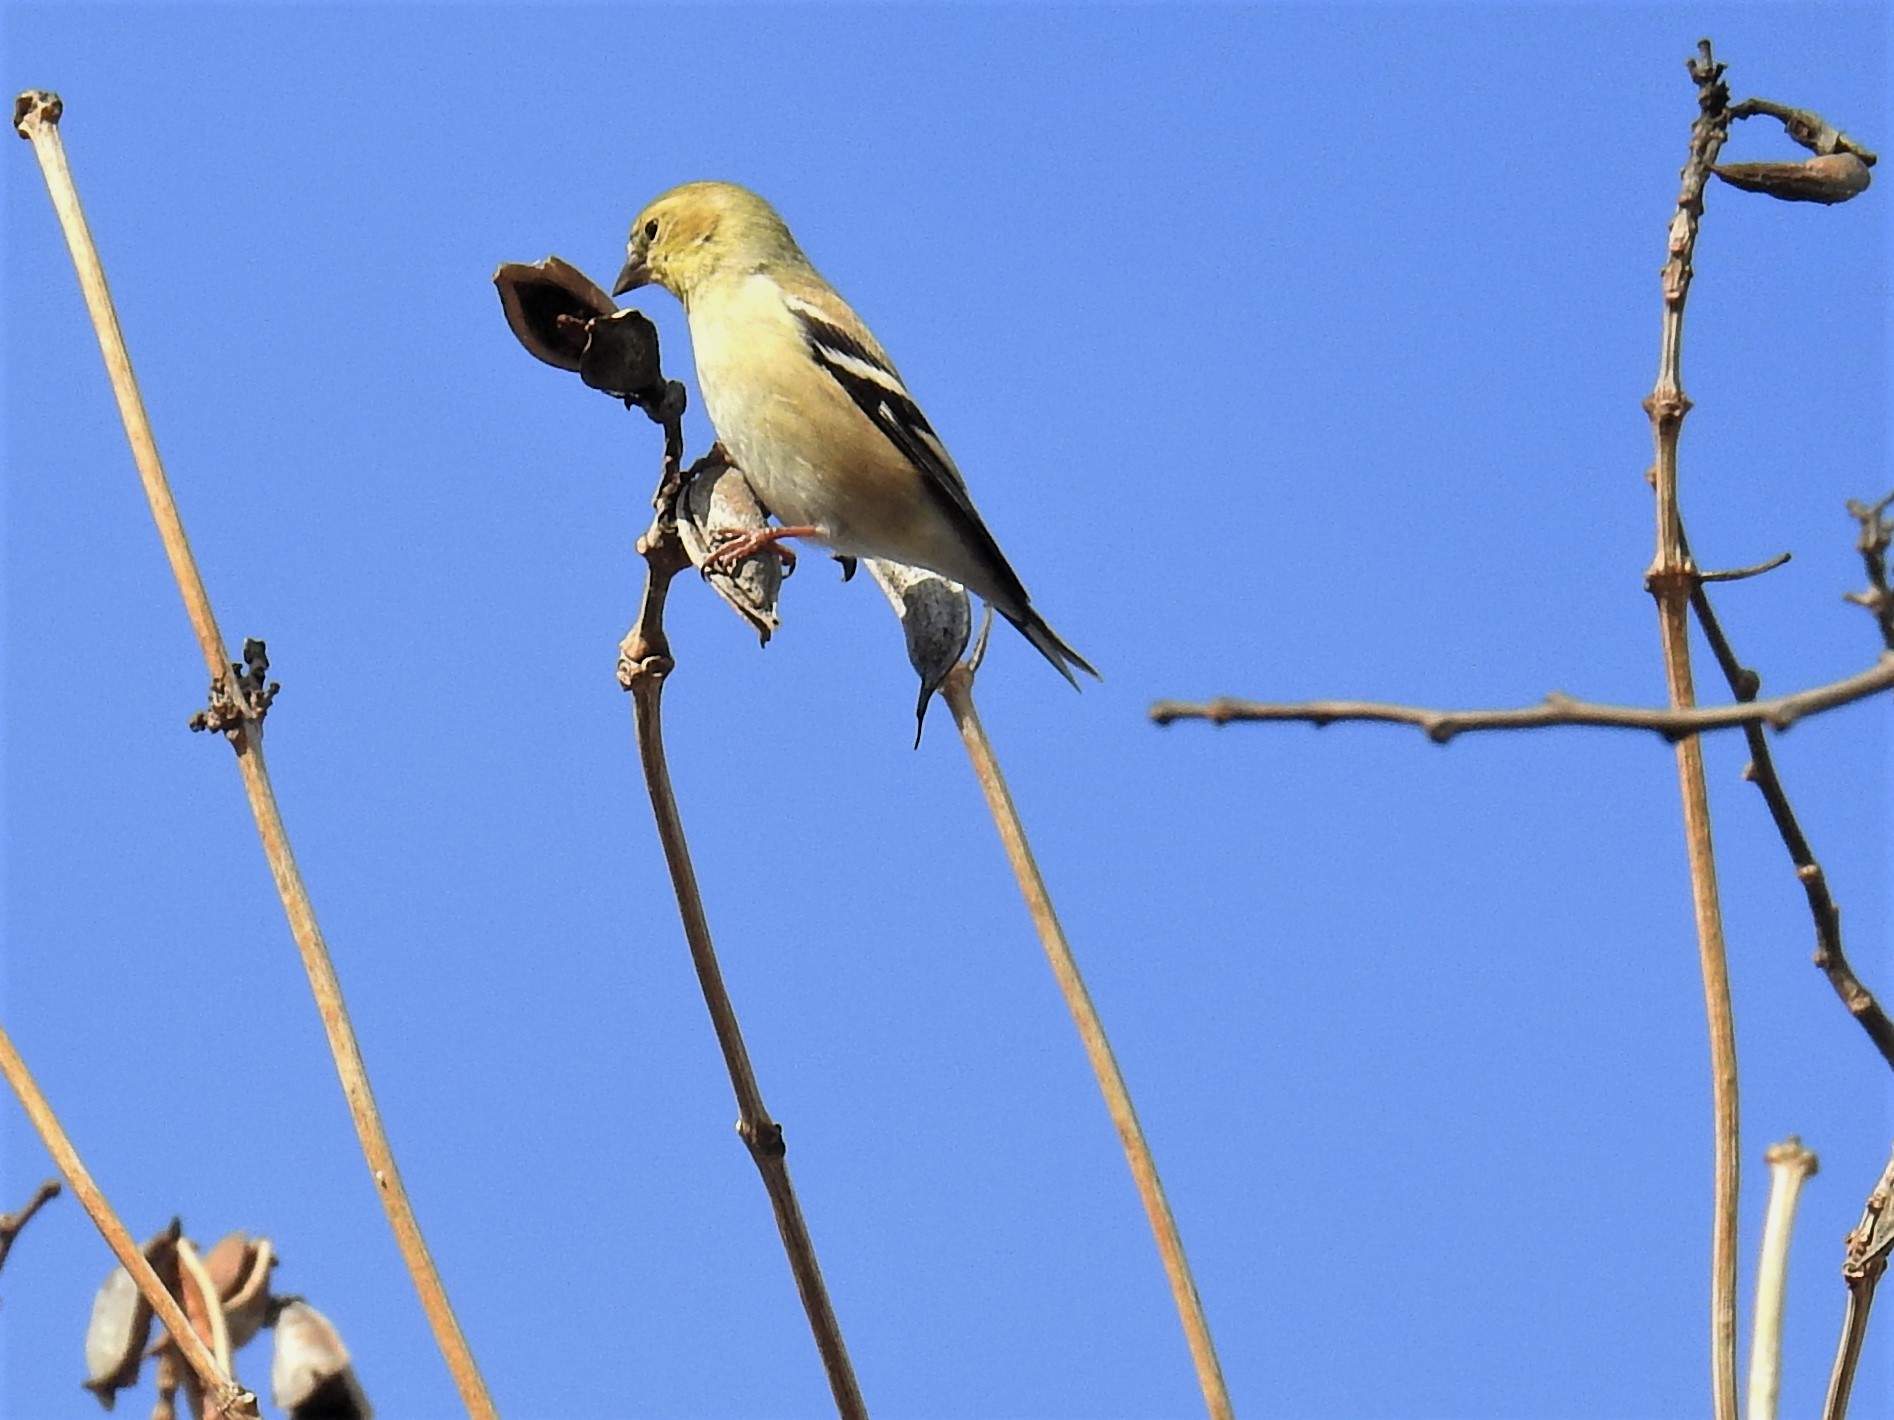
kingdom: Animalia
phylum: Chordata
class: Aves
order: Passeriformes
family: Fringillidae
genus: Spinus
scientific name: Spinus tristis
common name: American goldfinch
